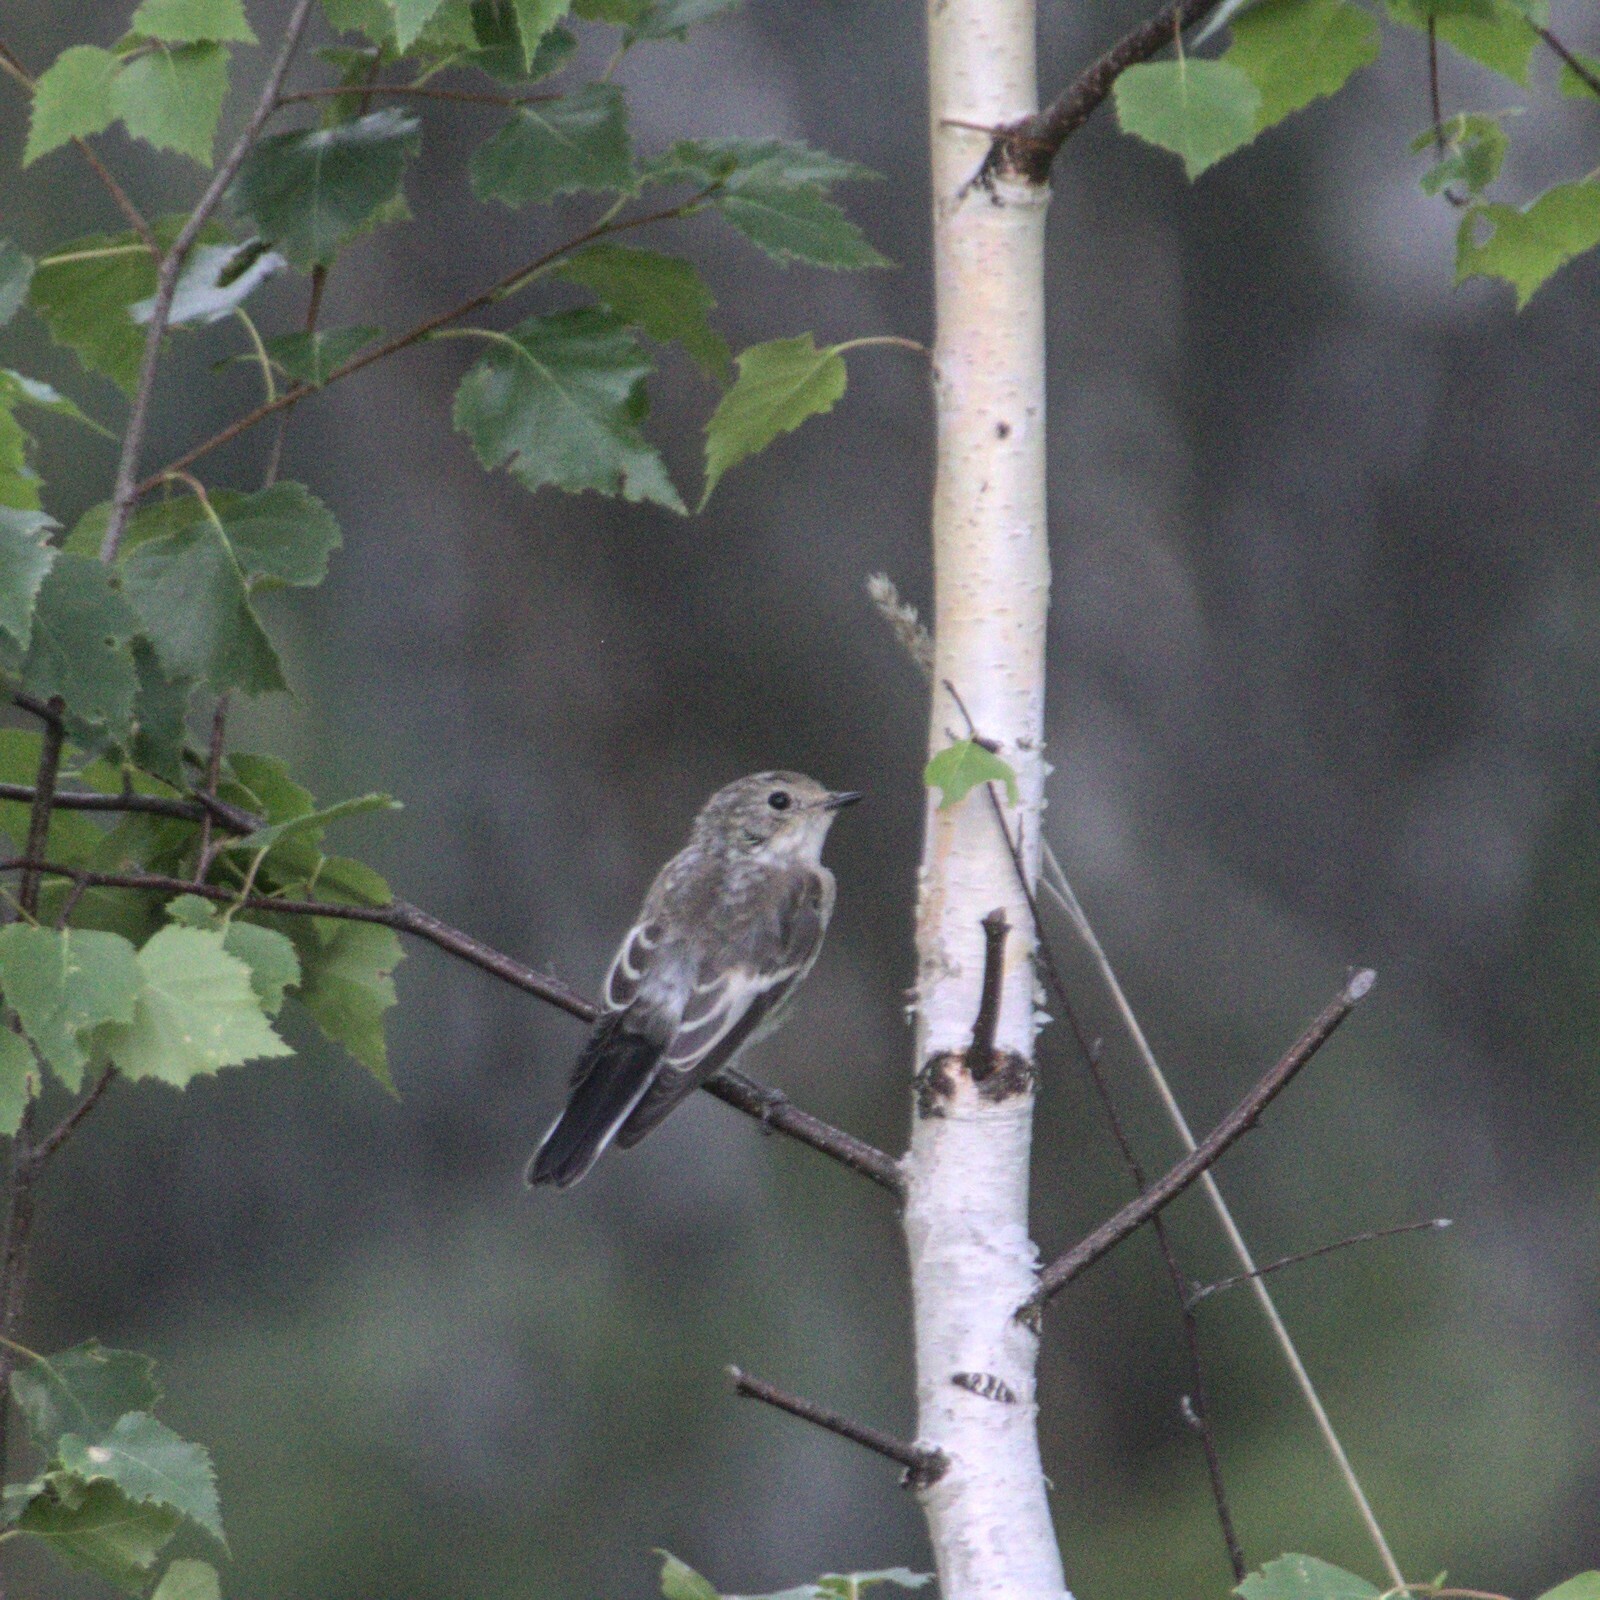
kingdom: Animalia
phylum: Chordata
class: Aves
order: Passeriformes
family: Muscicapidae
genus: Ficedula
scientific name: Ficedula hypoleuca
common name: European pied flycatcher
